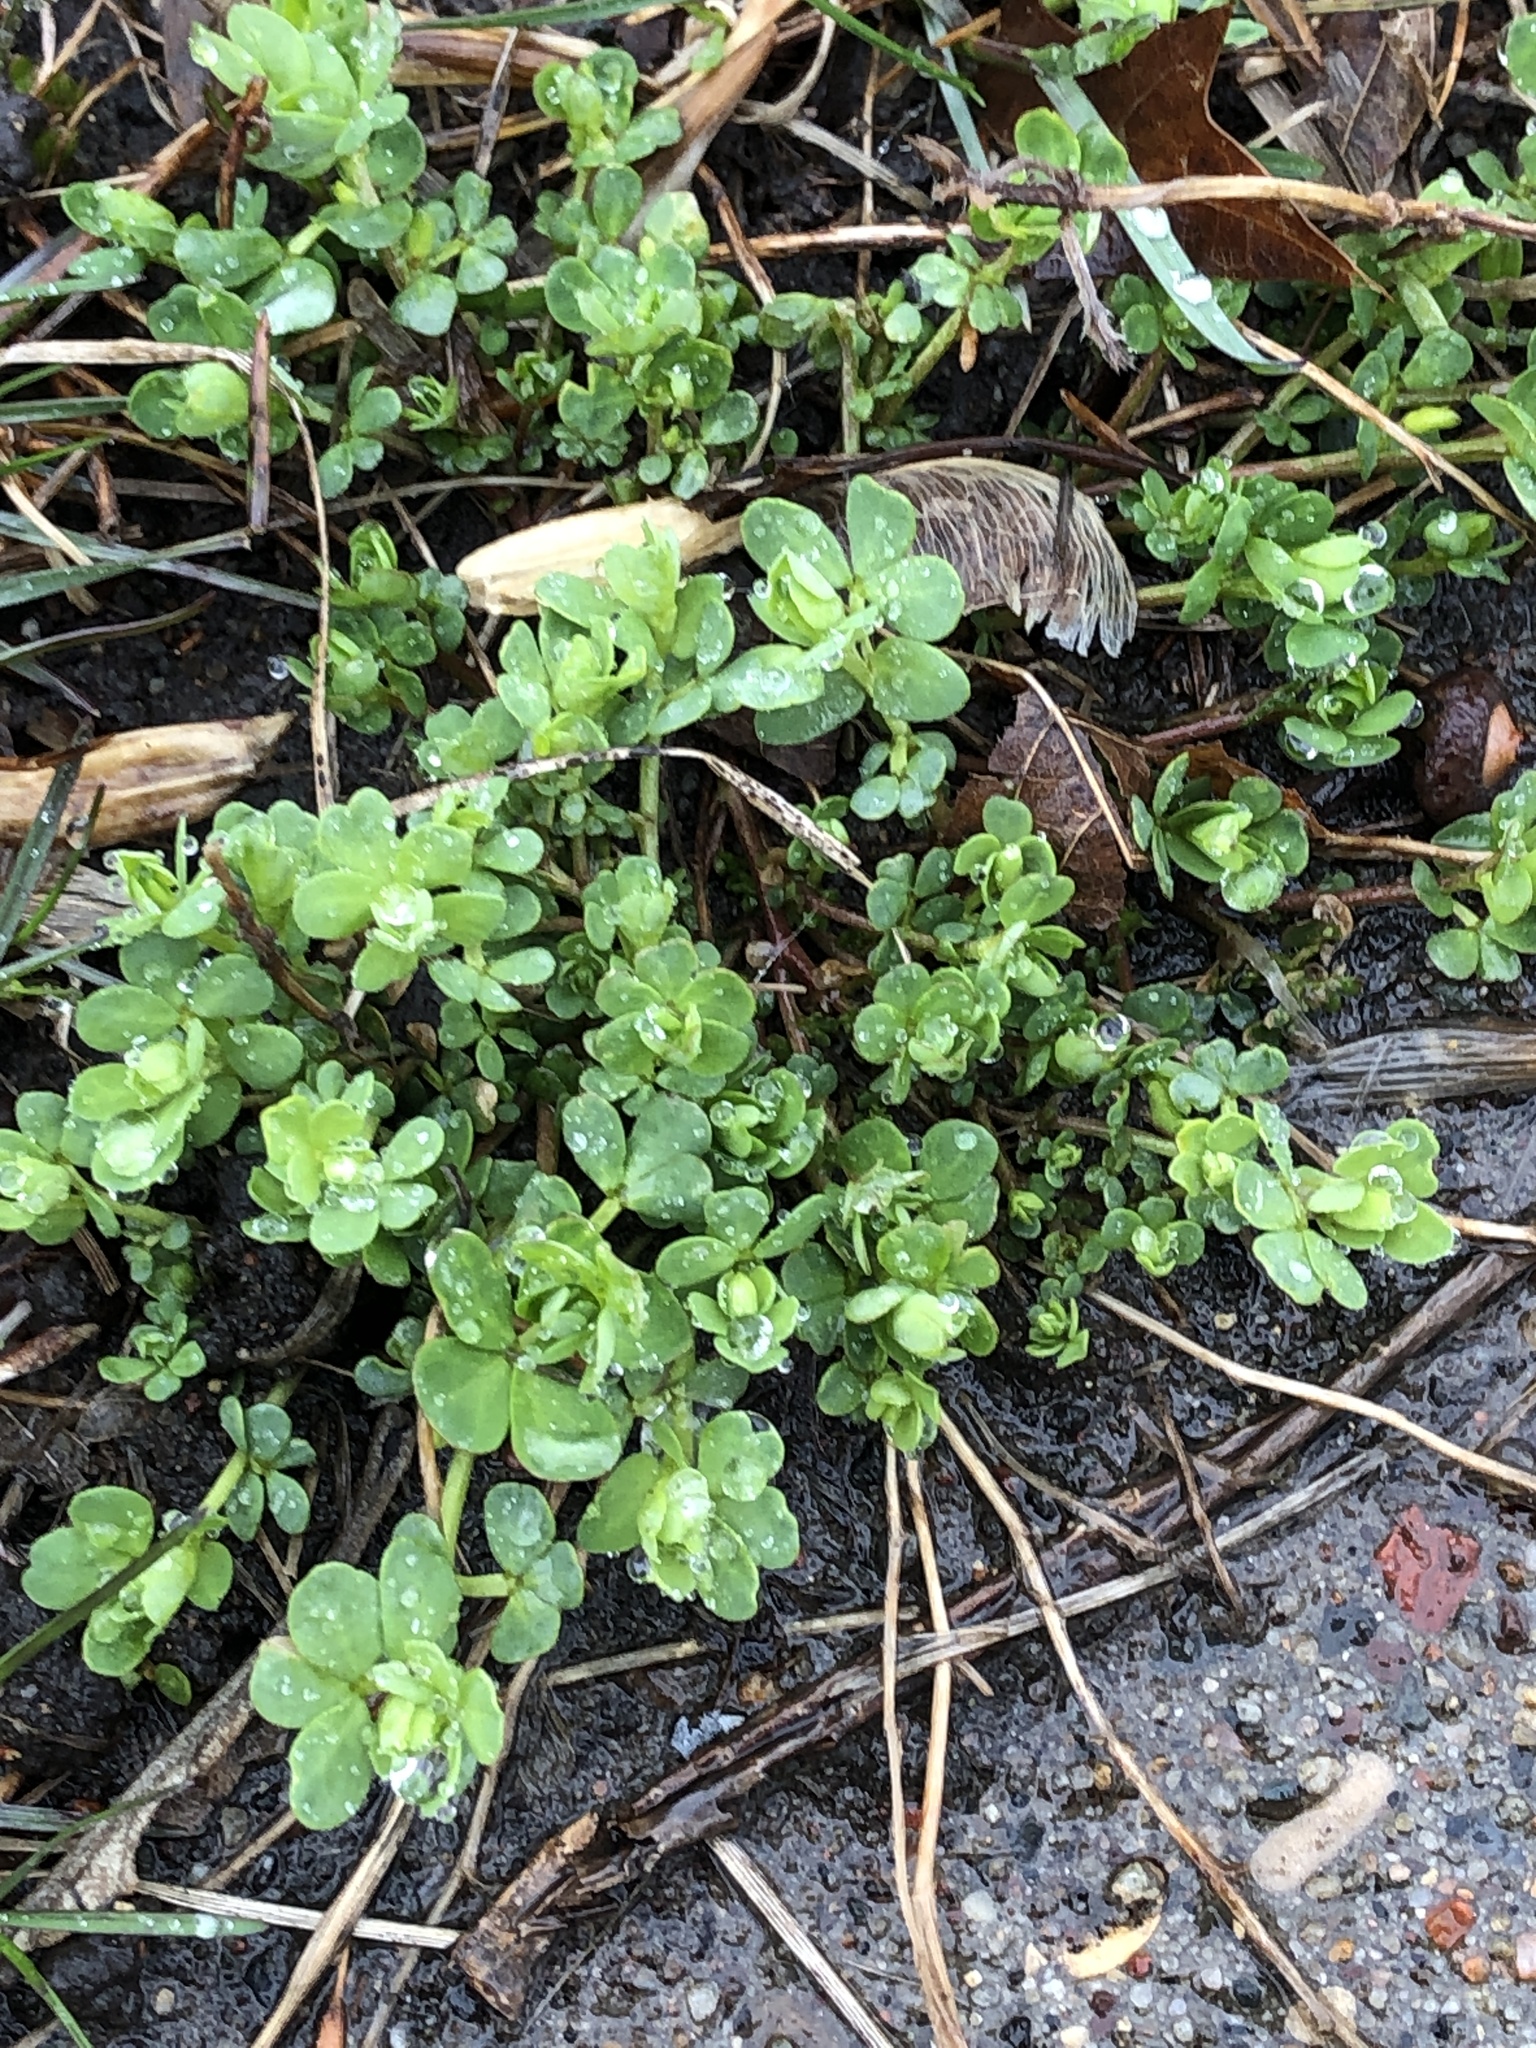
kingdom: Plantae
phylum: Tracheophyta
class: Magnoliopsida
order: Fabales
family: Fabaceae
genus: Lotus
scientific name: Lotus corniculatus
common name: Common bird's-foot-trefoil
